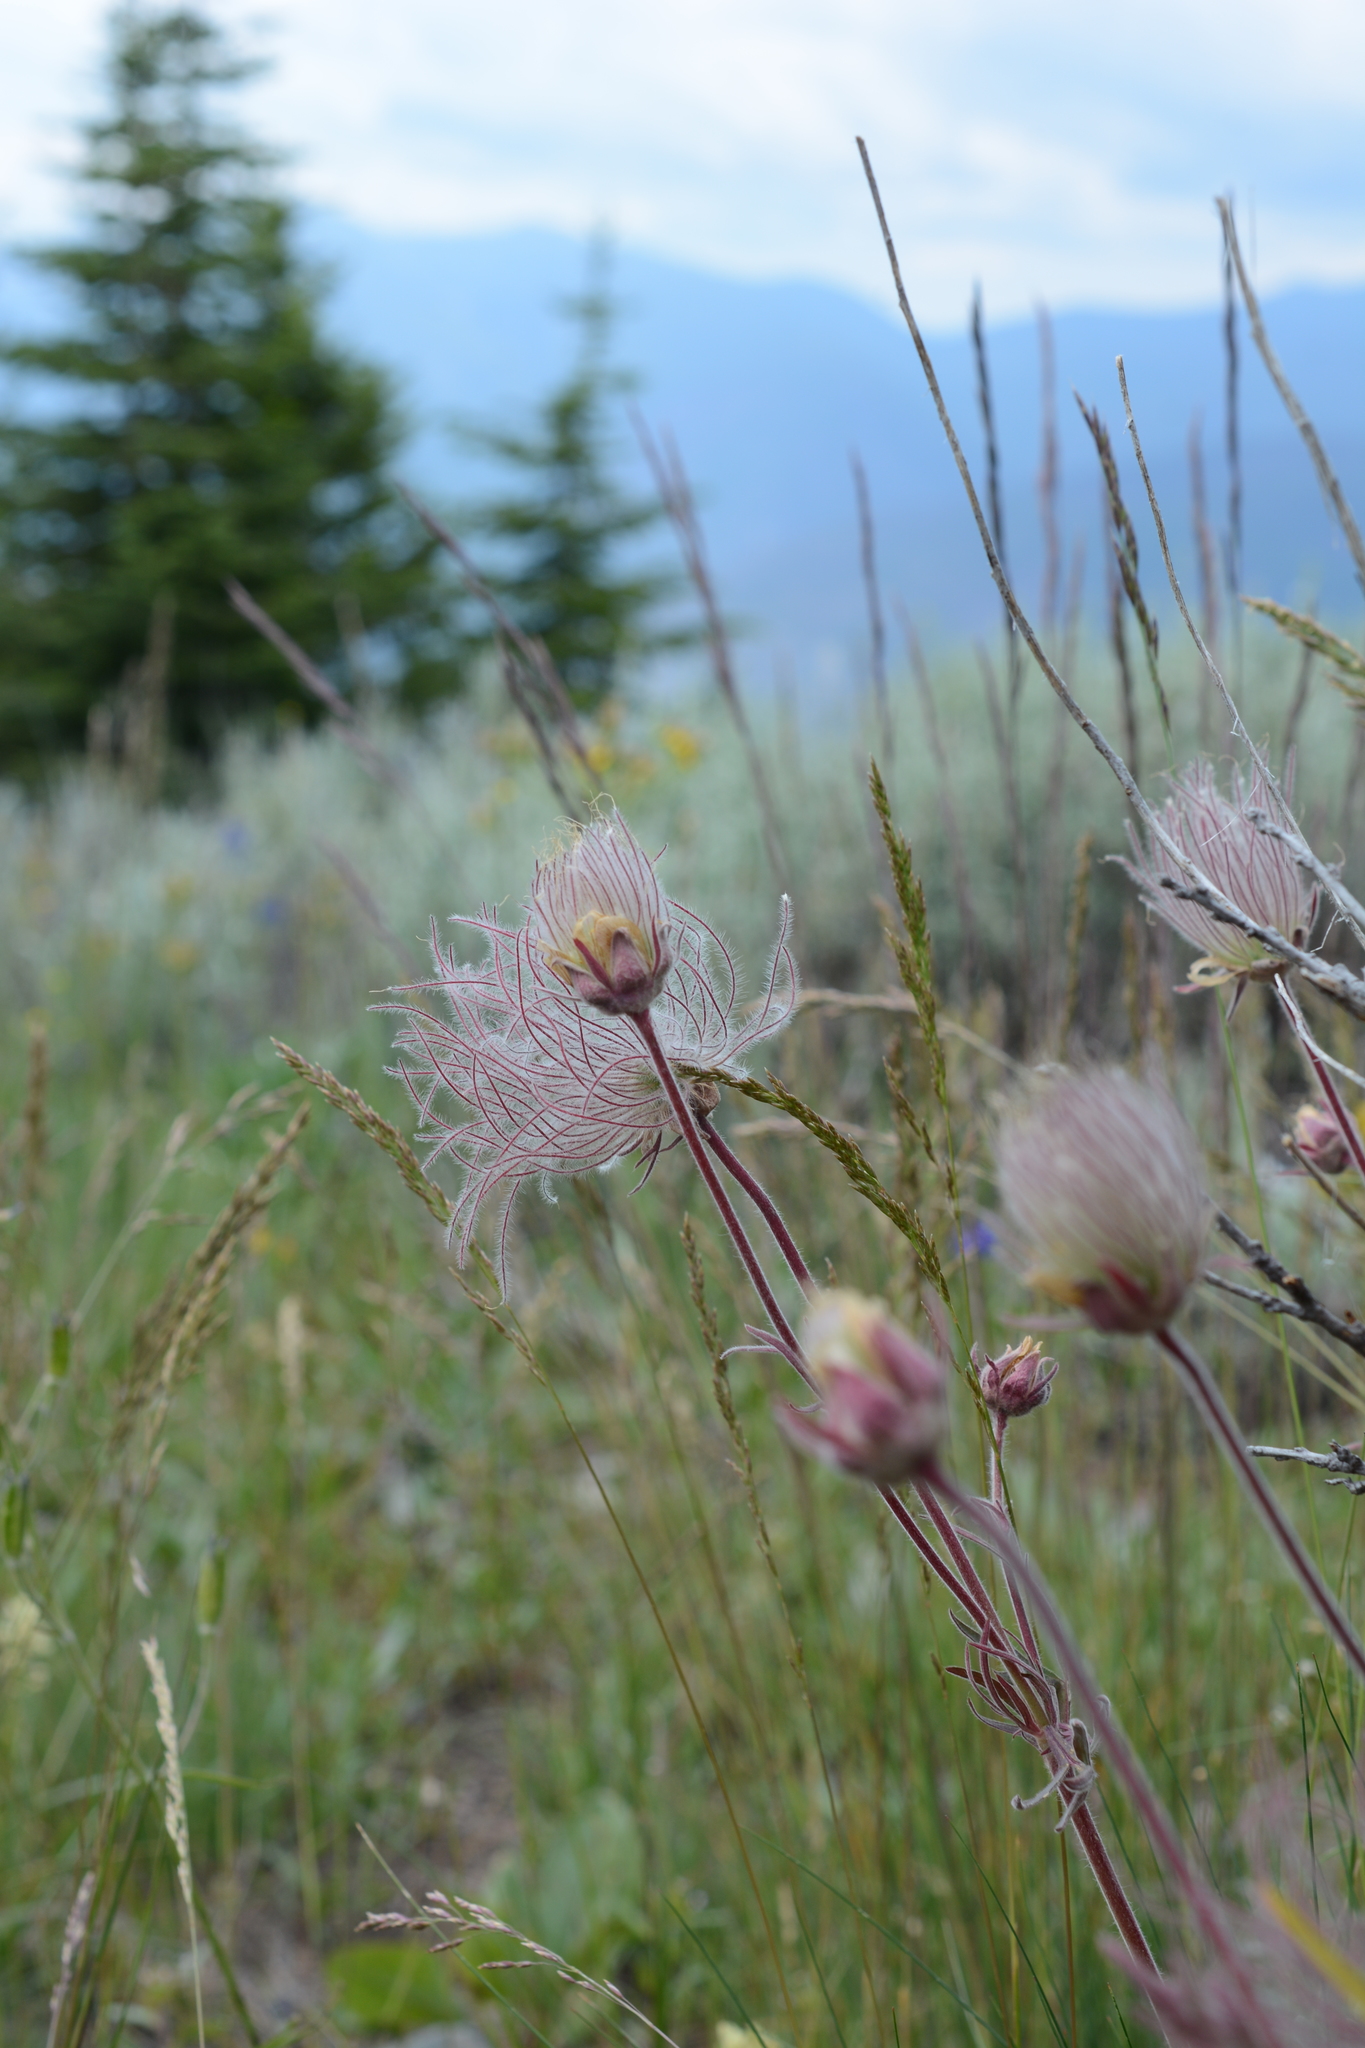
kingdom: Plantae
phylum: Tracheophyta
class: Magnoliopsida
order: Rosales
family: Rosaceae
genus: Geum
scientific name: Geum triflorum
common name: Old man's whiskers
